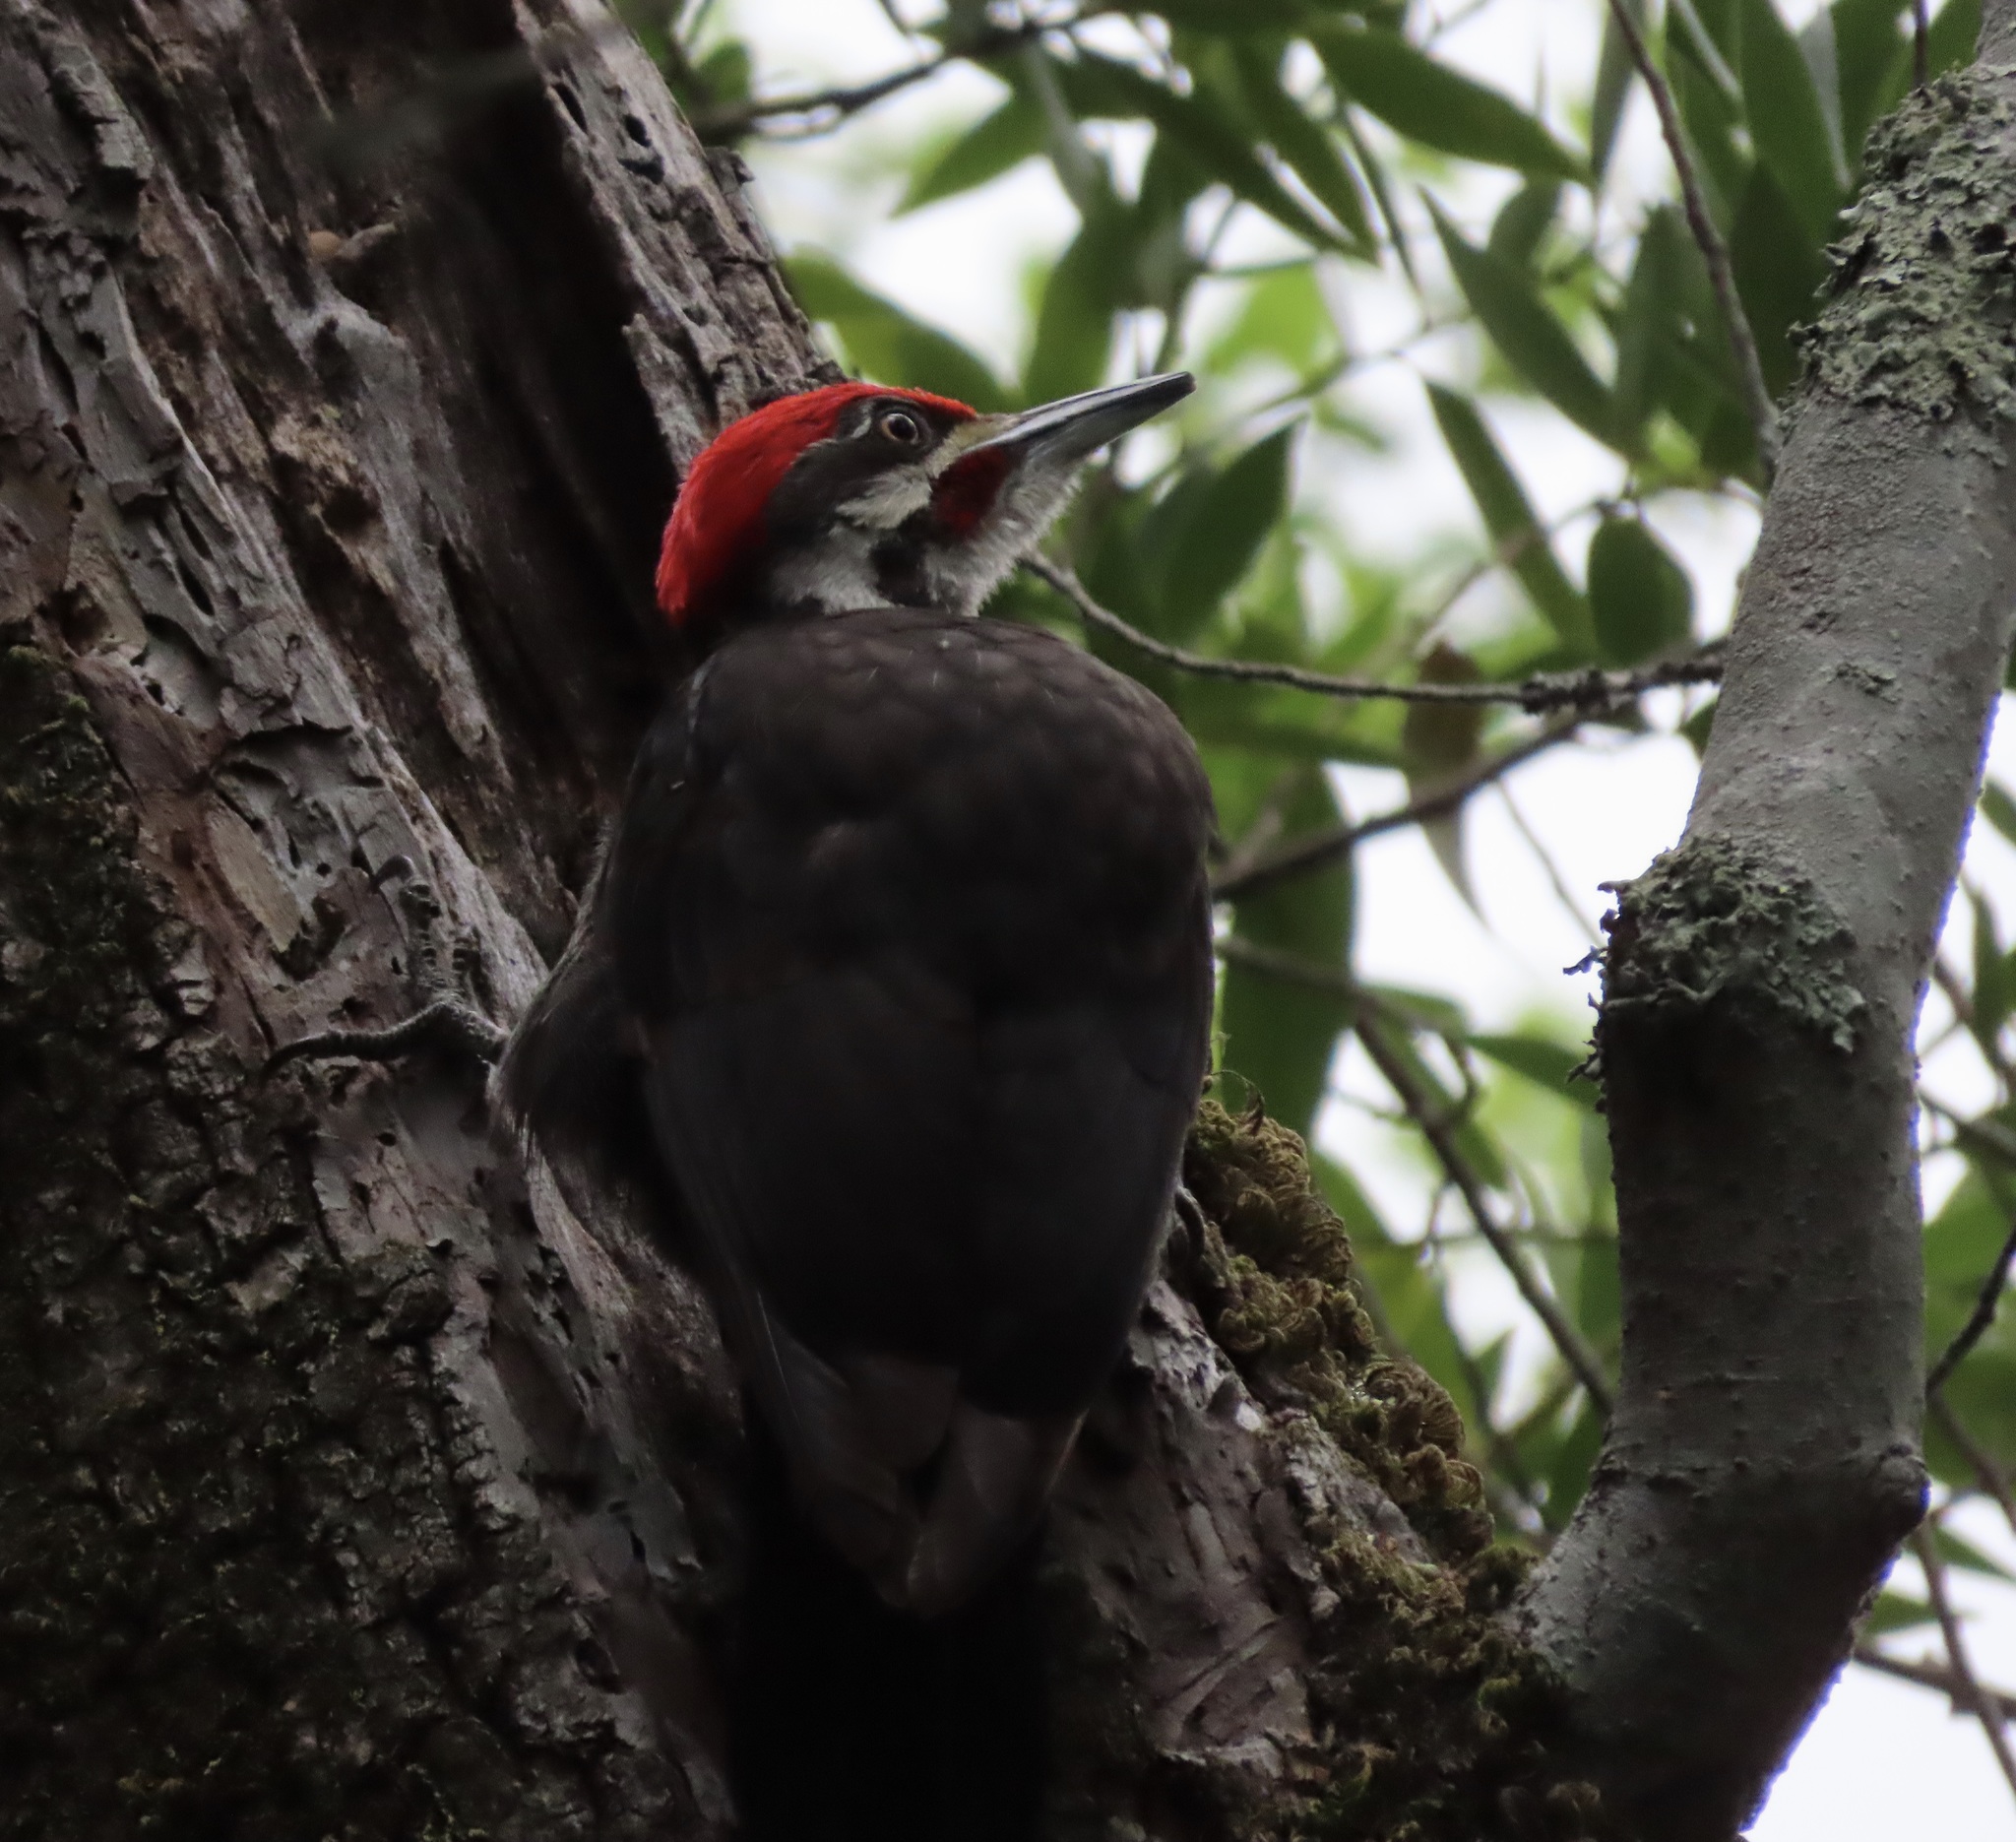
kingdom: Animalia
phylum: Chordata
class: Aves
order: Piciformes
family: Picidae
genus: Dryocopus
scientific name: Dryocopus pileatus
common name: Pileated woodpecker
